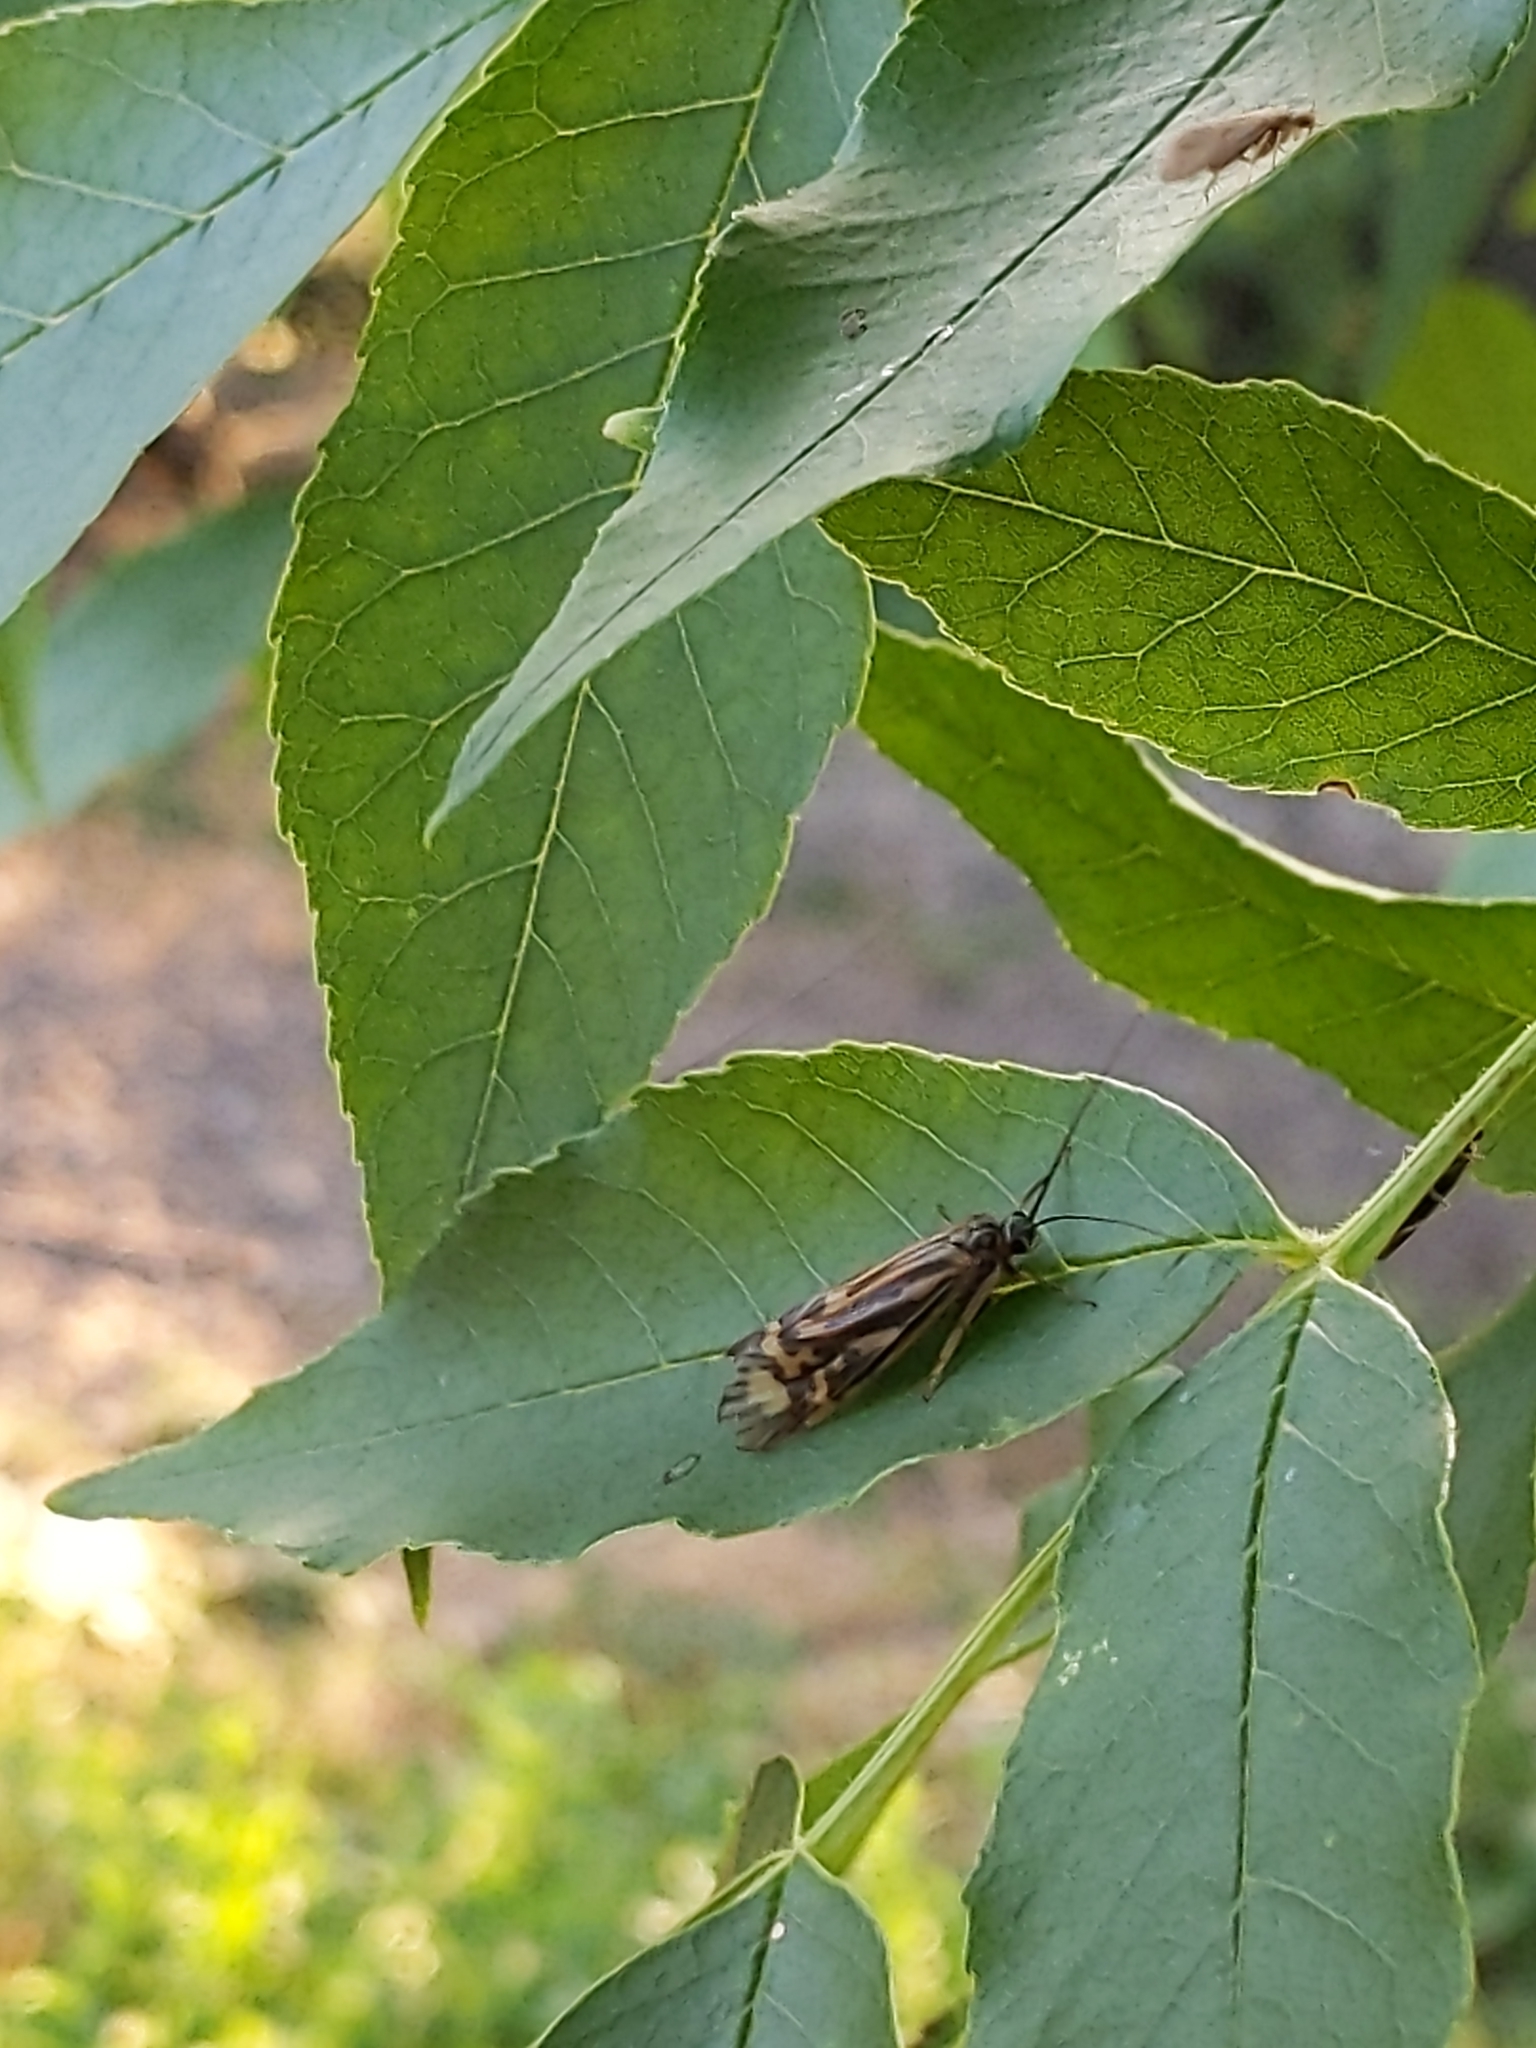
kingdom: Animalia
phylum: Arthropoda
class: Insecta
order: Trichoptera
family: Hydropsychidae
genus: Macrostemum
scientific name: Macrostemum zebratum
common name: Zebra caddisfly
